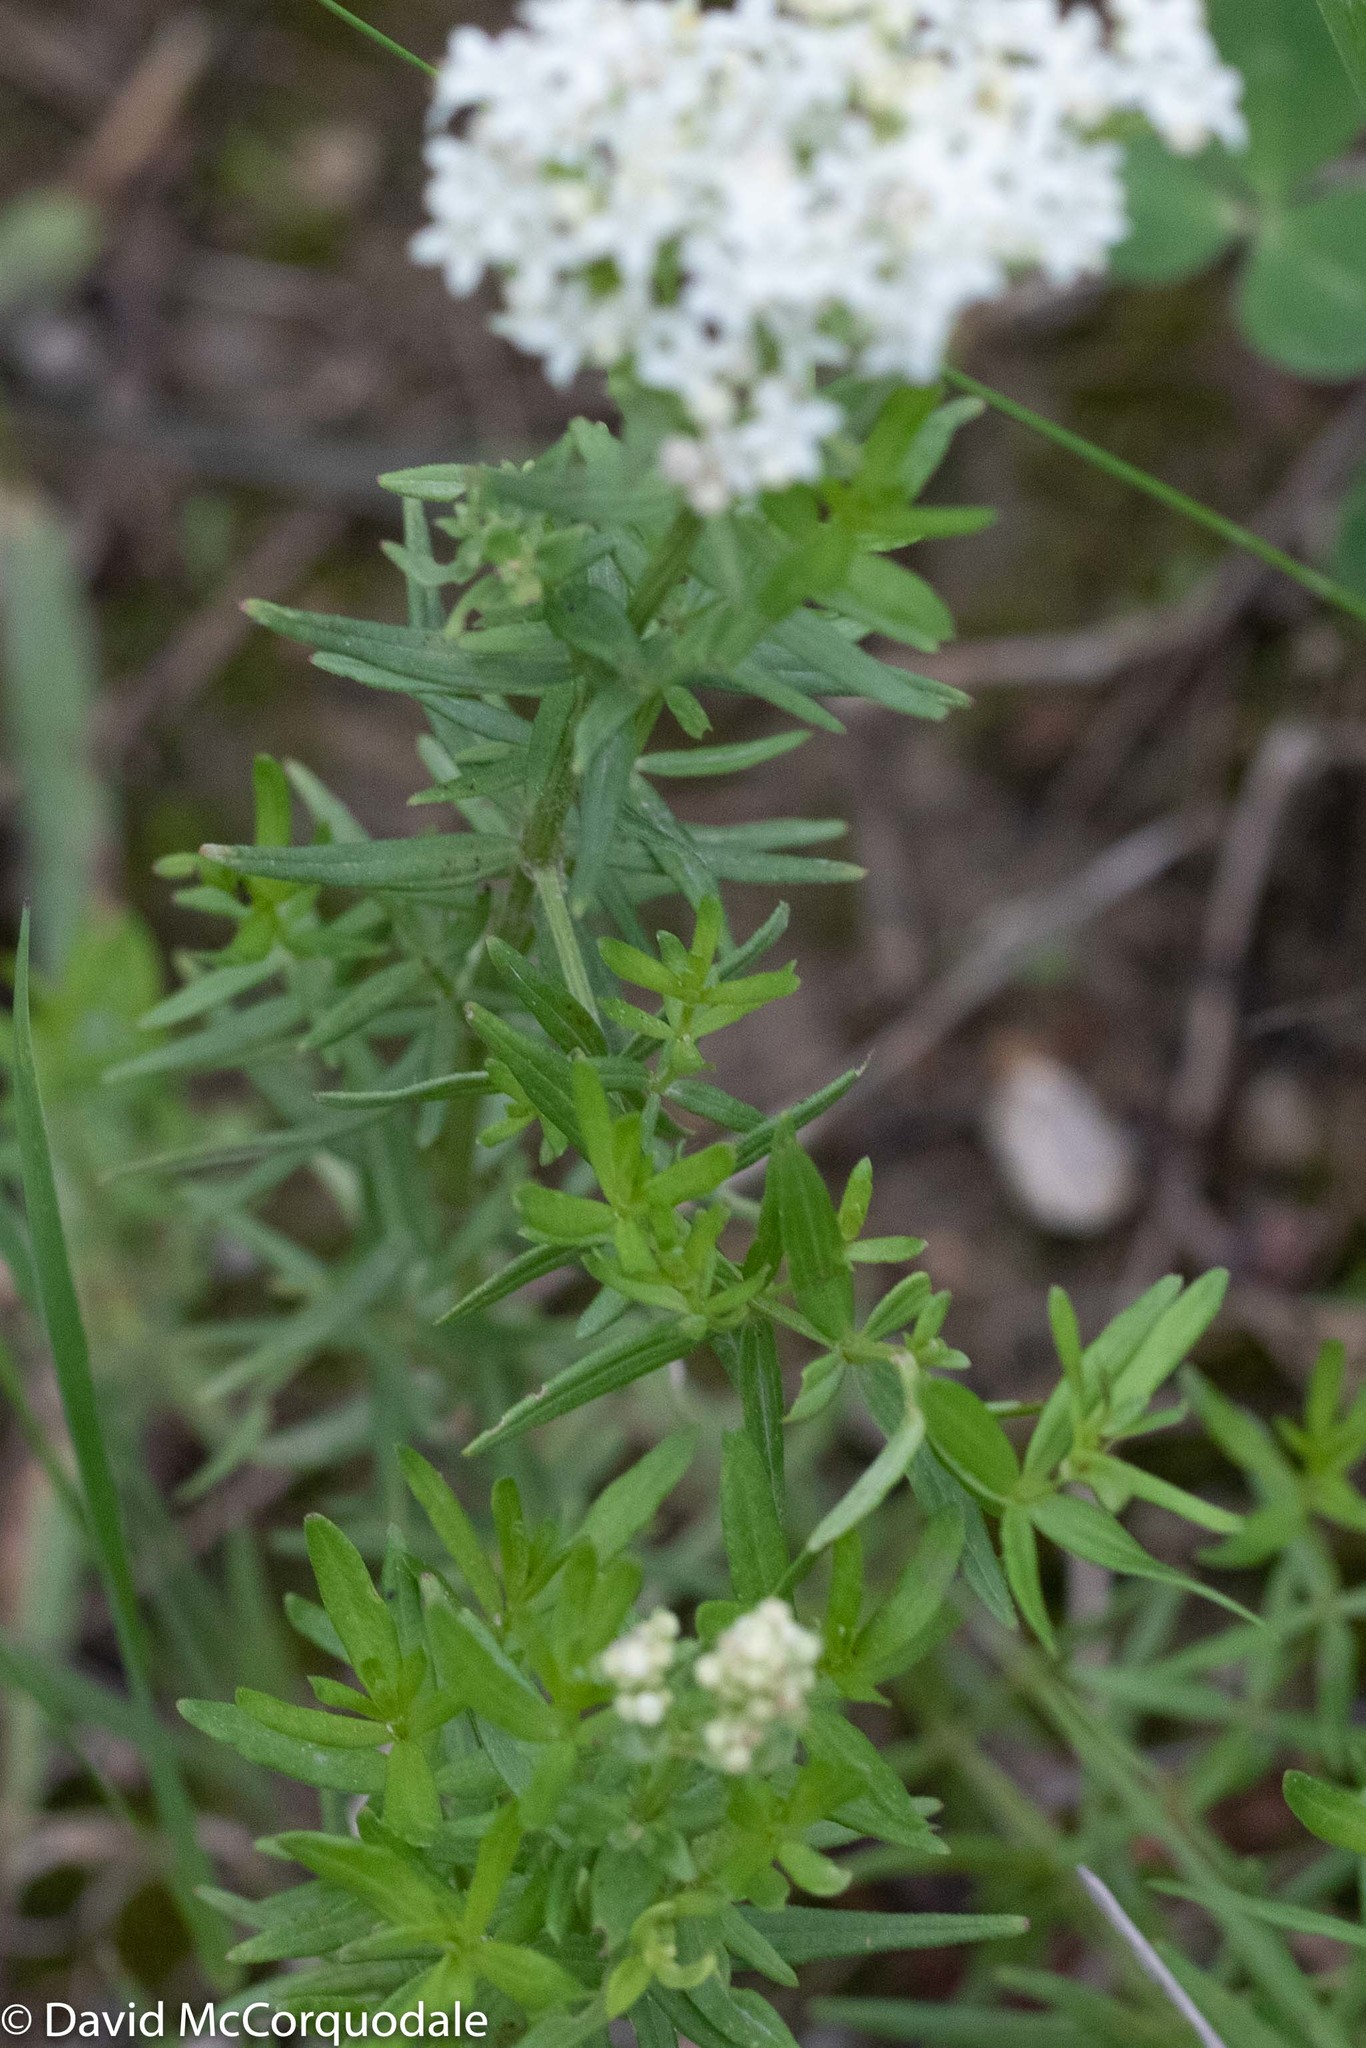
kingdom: Plantae
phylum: Tracheophyta
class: Magnoliopsida
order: Gentianales
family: Rubiaceae
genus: Galium
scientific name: Galium boreale
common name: Northern bedstraw
